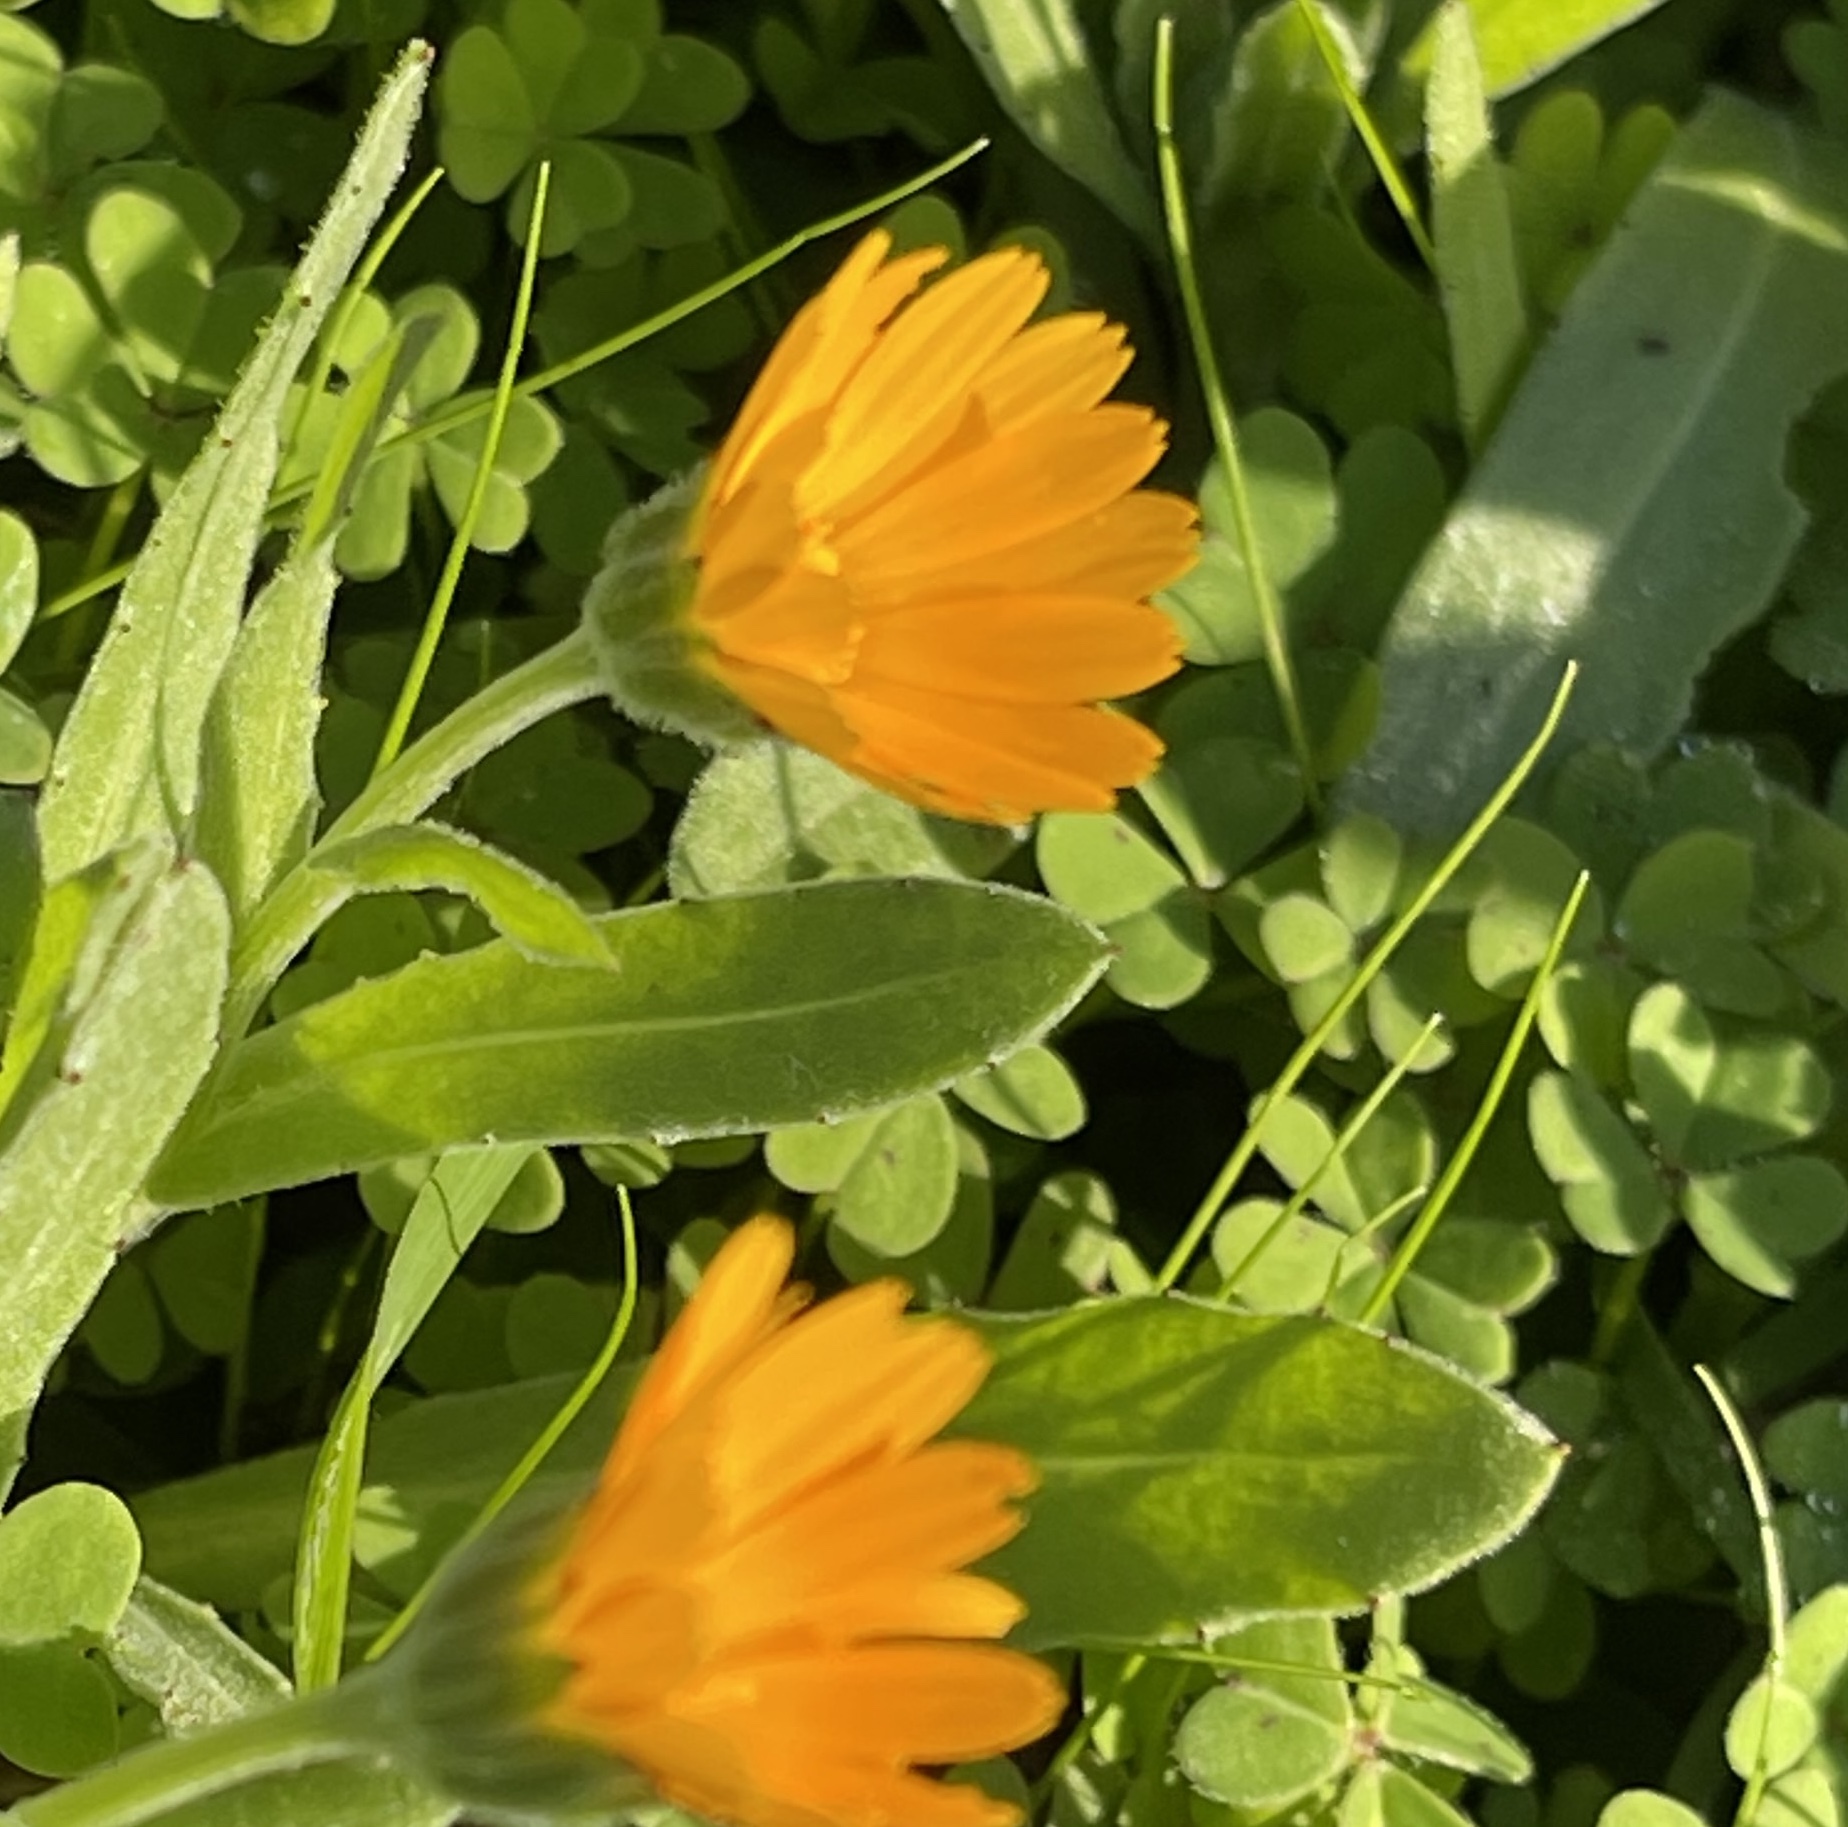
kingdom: Plantae
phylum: Tracheophyta
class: Magnoliopsida
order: Asterales
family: Asteraceae
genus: Calendula
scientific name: Calendula arvensis
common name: Field marigold
